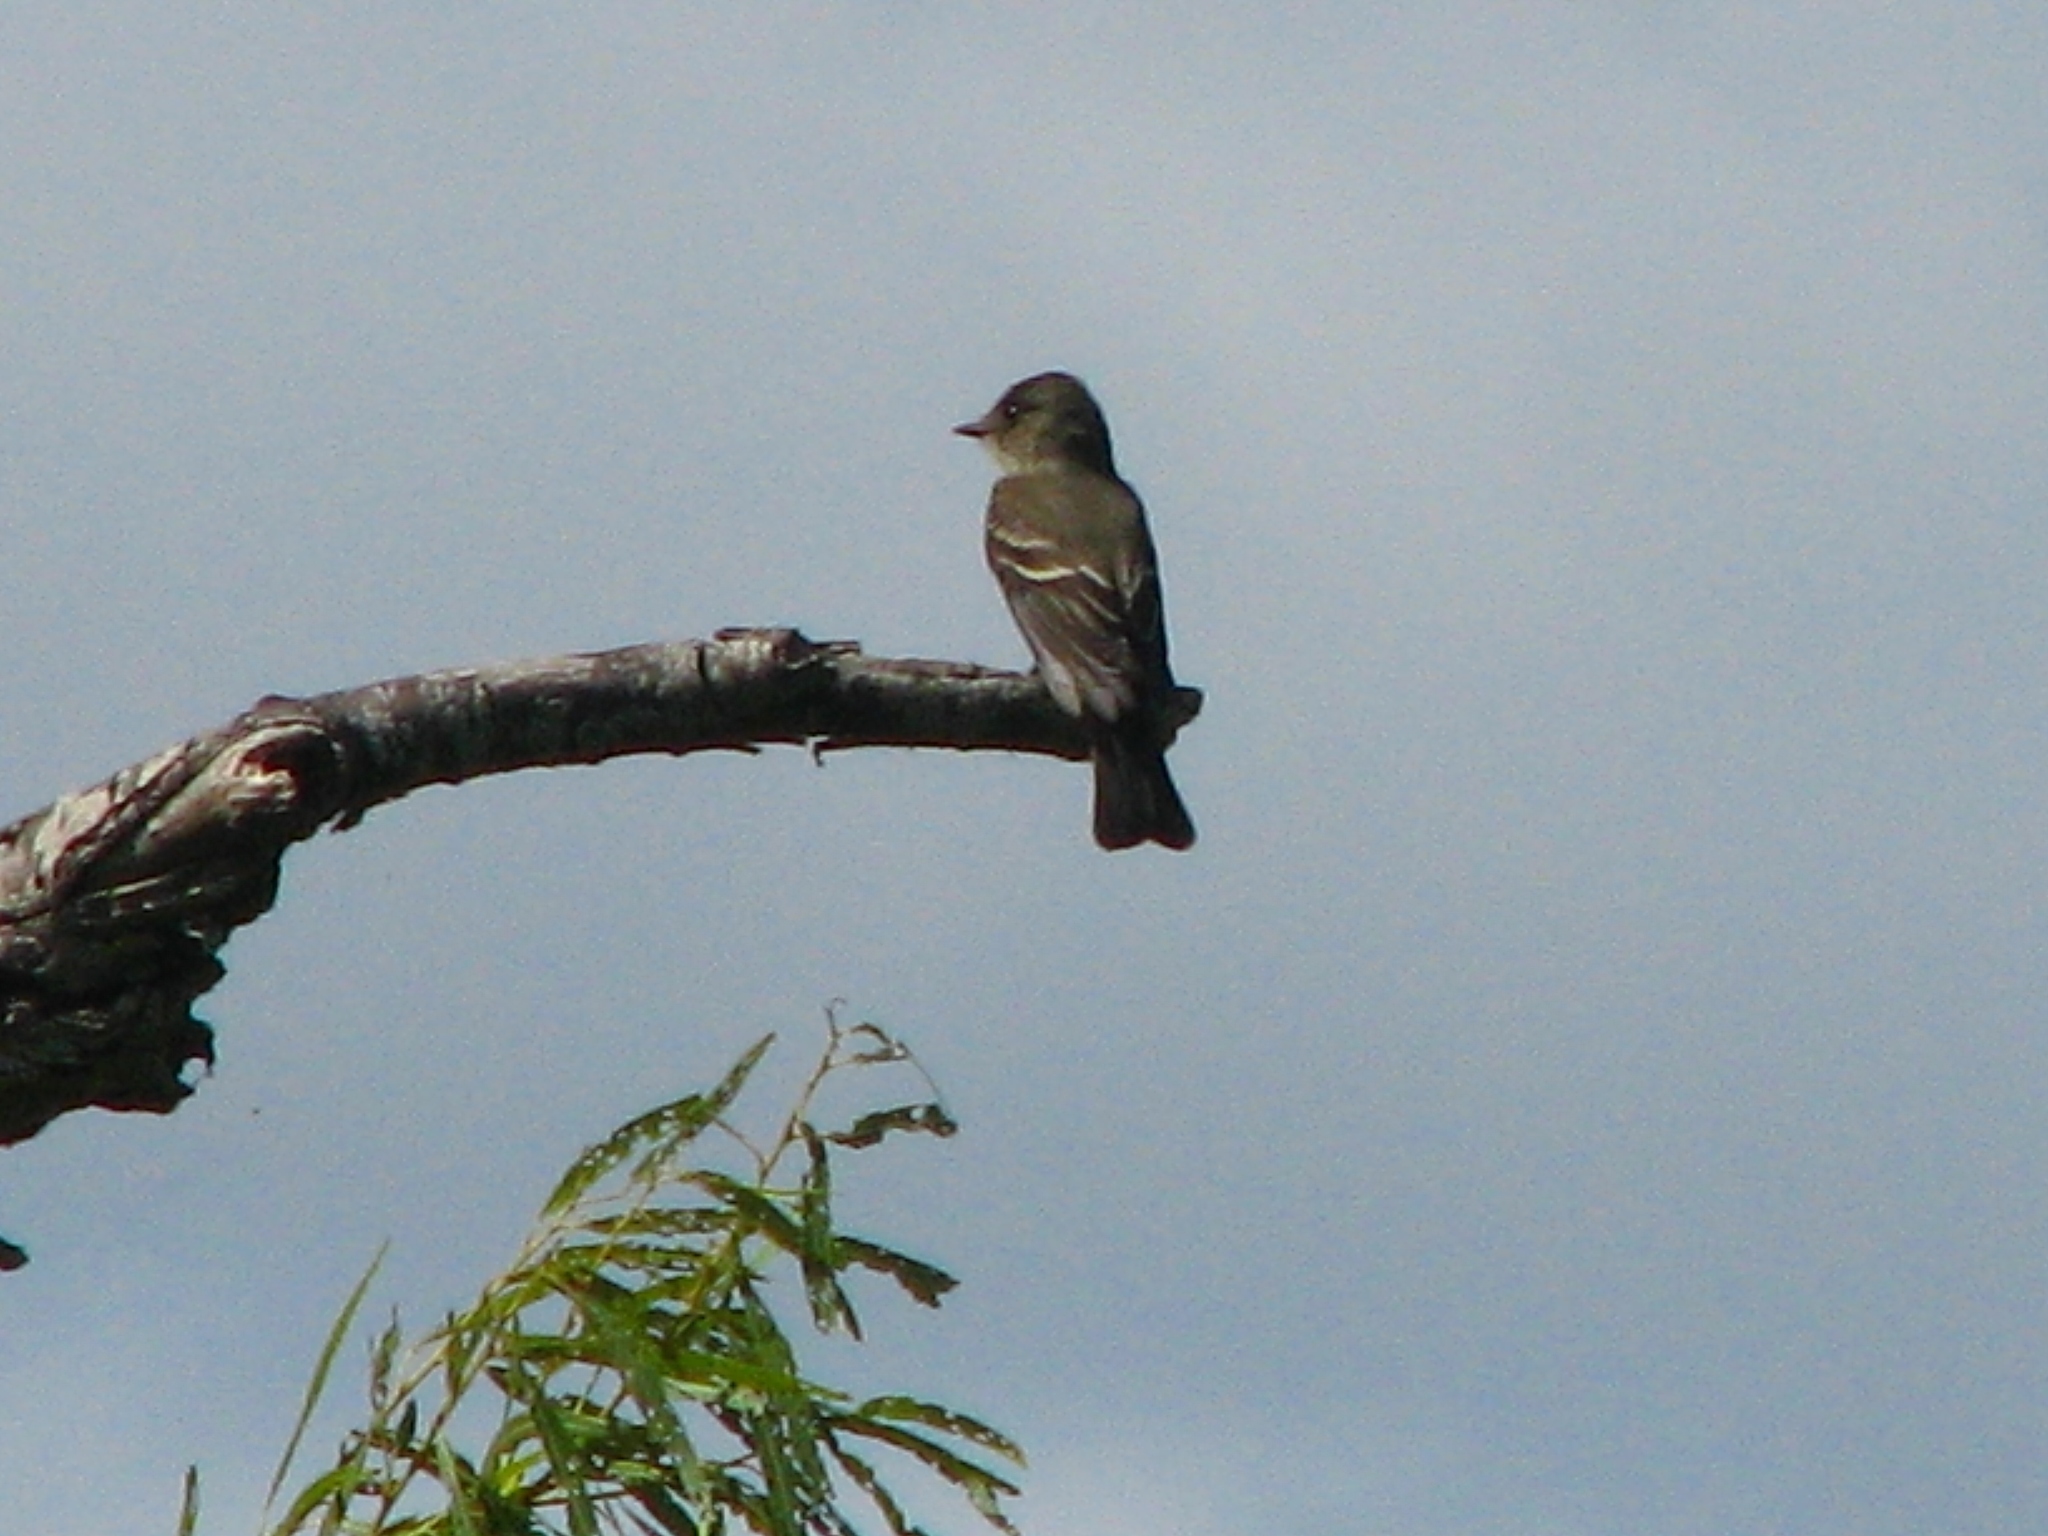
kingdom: Animalia
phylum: Chordata
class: Aves
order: Passeriformes
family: Tyrannidae
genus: Contopus
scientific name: Contopus virens
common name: Eastern wood-pewee
